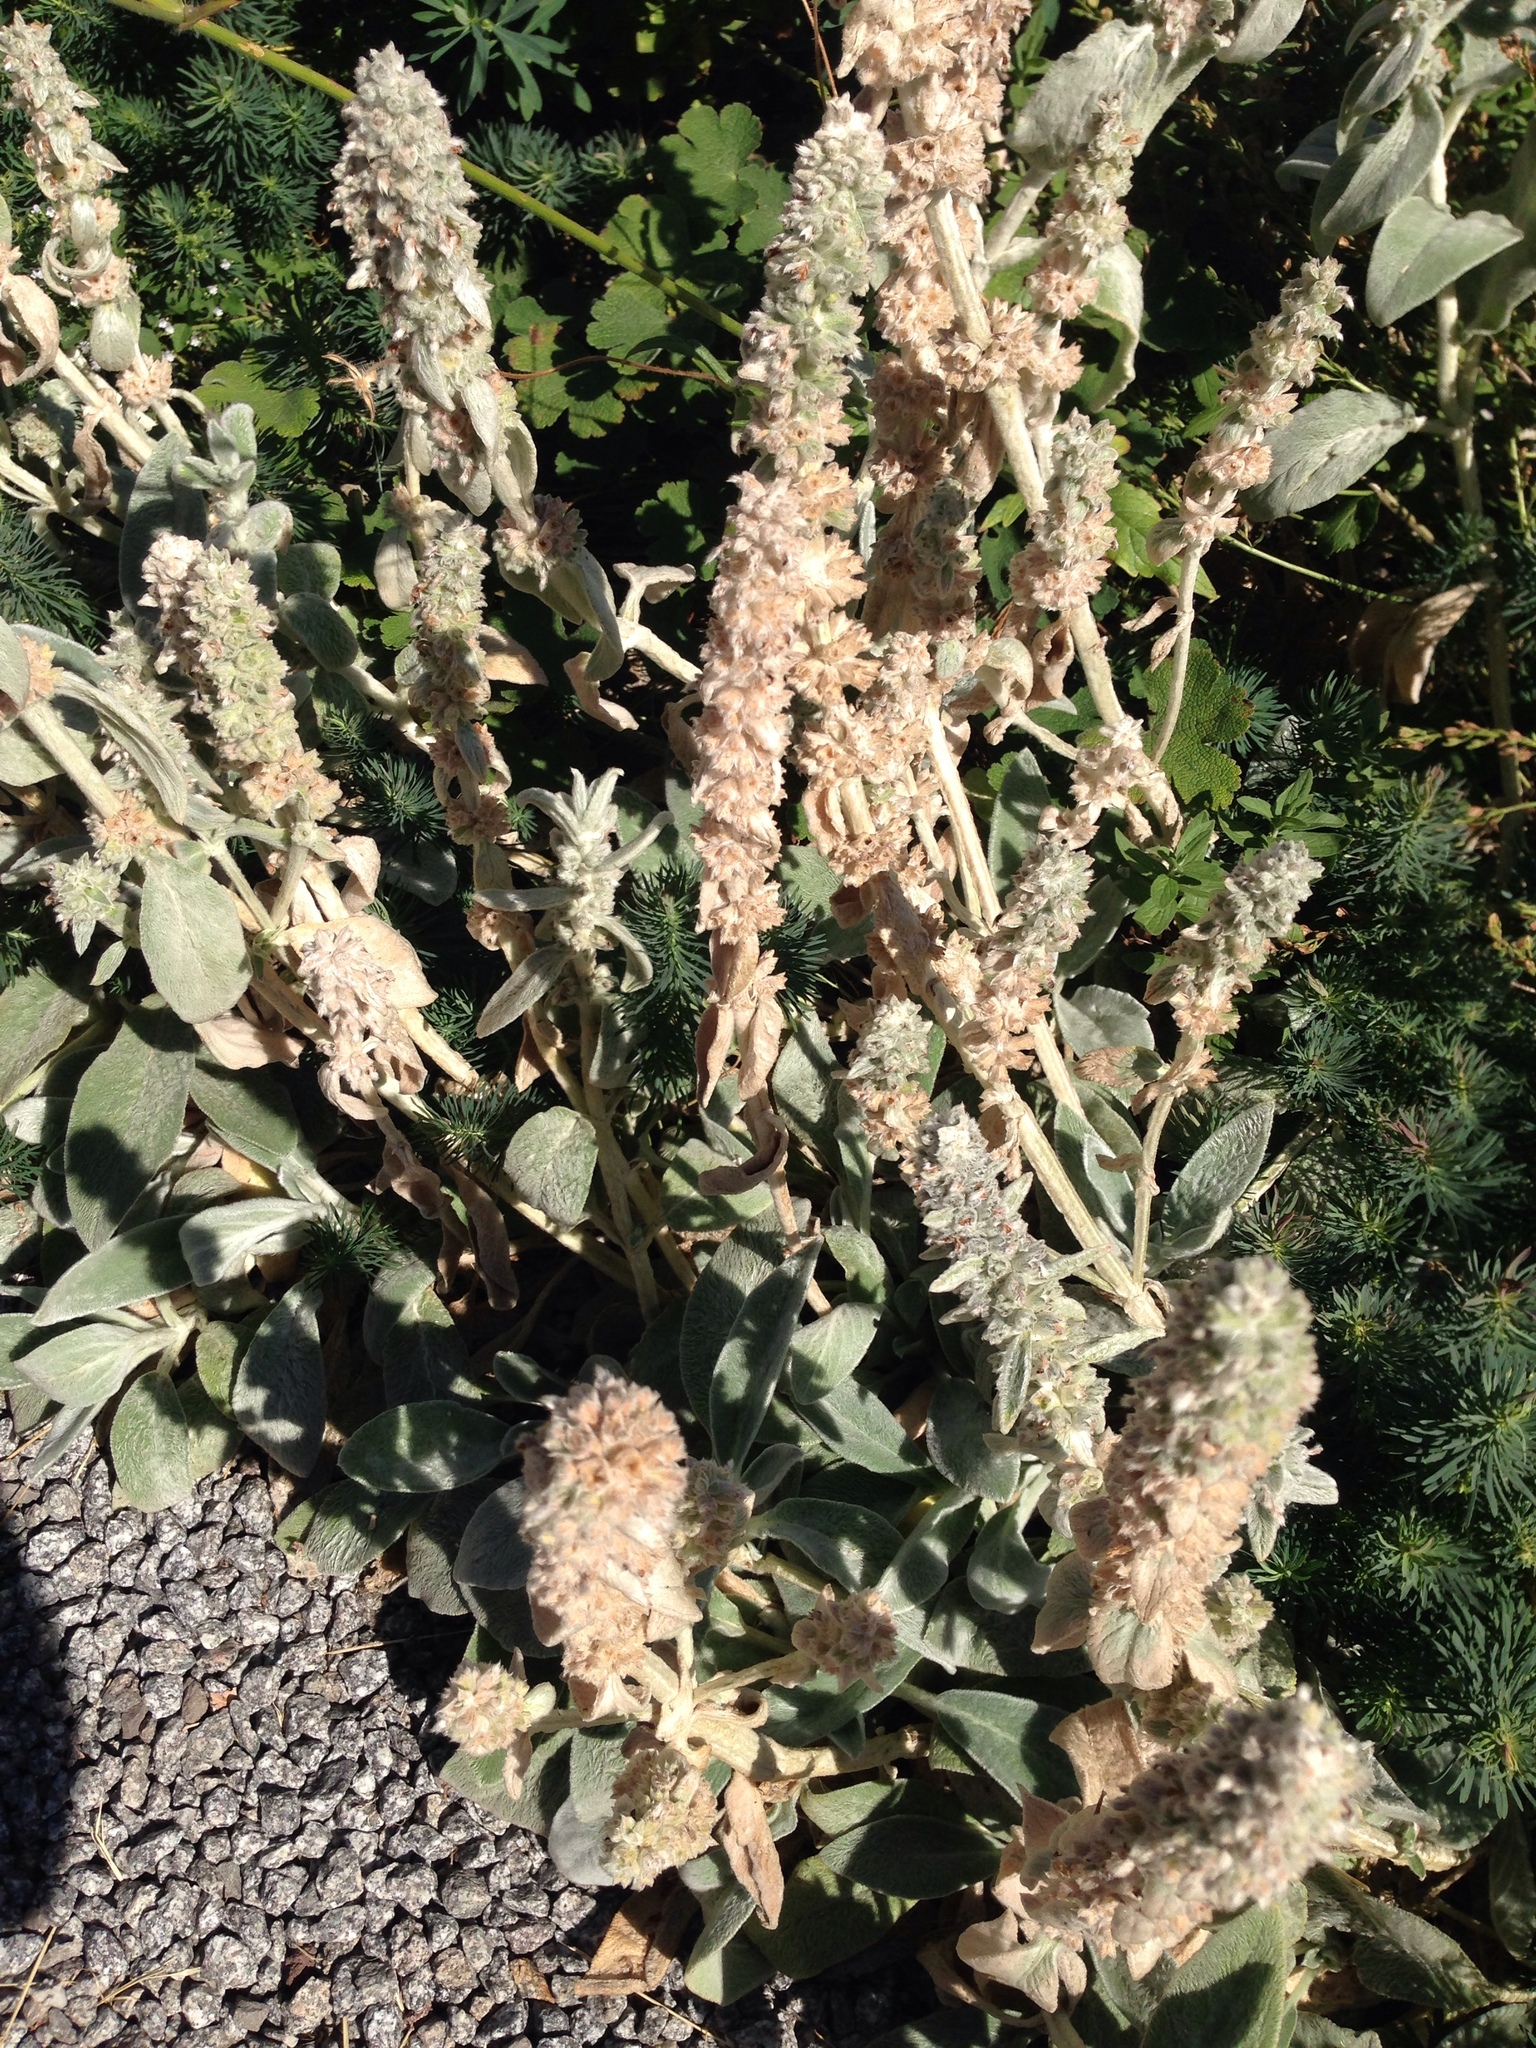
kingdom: Plantae
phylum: Tracheophyta
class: Magnoliopsida
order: Lamiales
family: Lamiaceae
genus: Stachys
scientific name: Stachys byzantina
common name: Lamb's-ear
